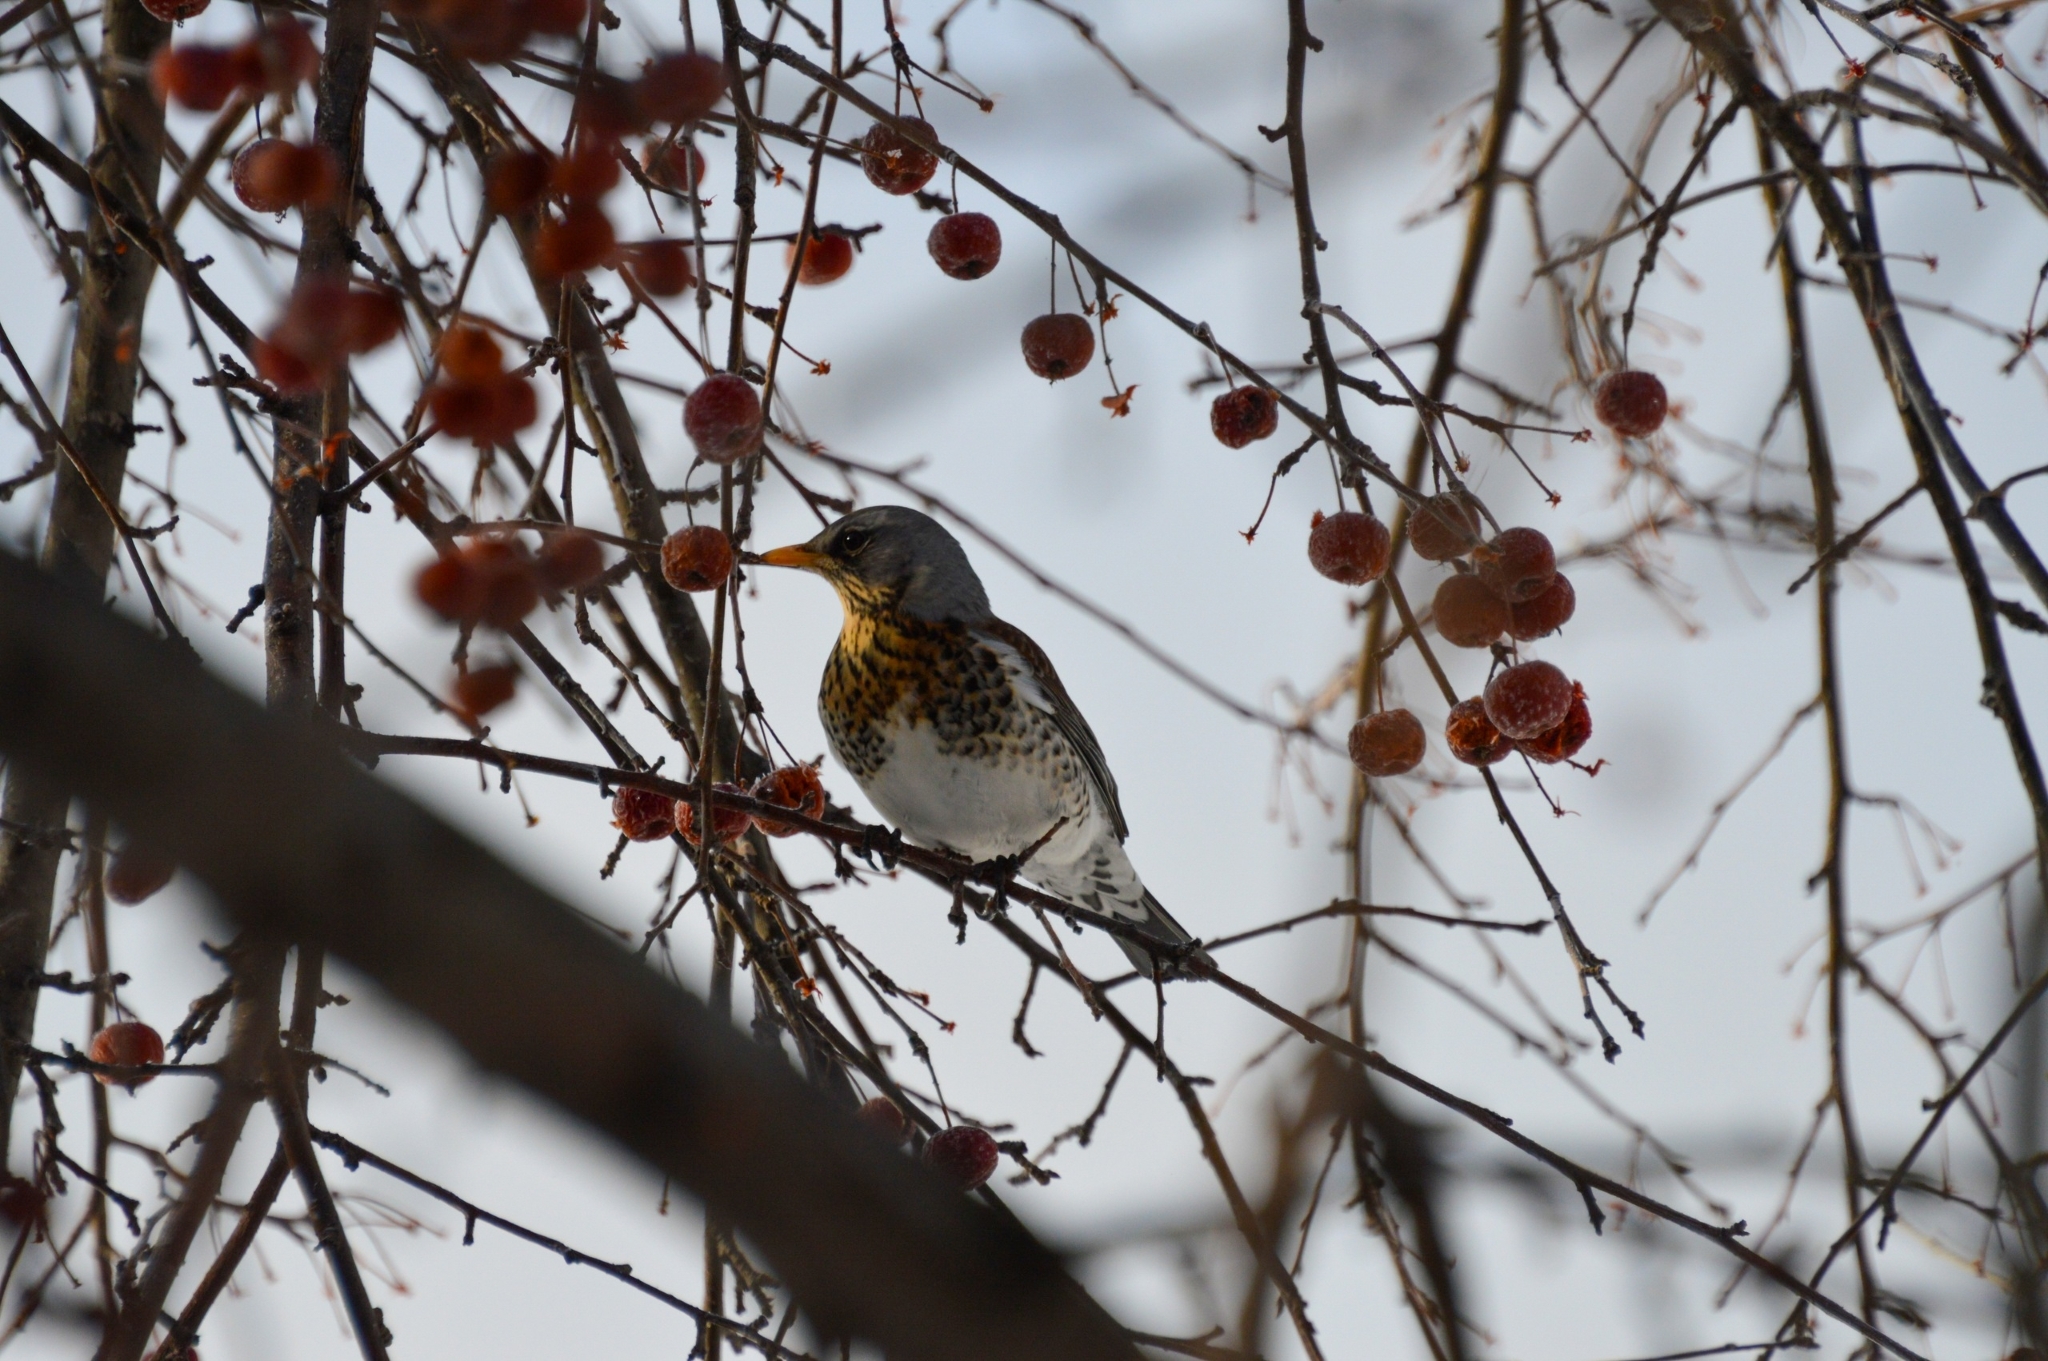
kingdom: Animalia
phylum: Chordata
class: Aves
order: Passeriformes
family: Turdidae
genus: Turdus
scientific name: Turdus pilaris
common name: Fieldfare
